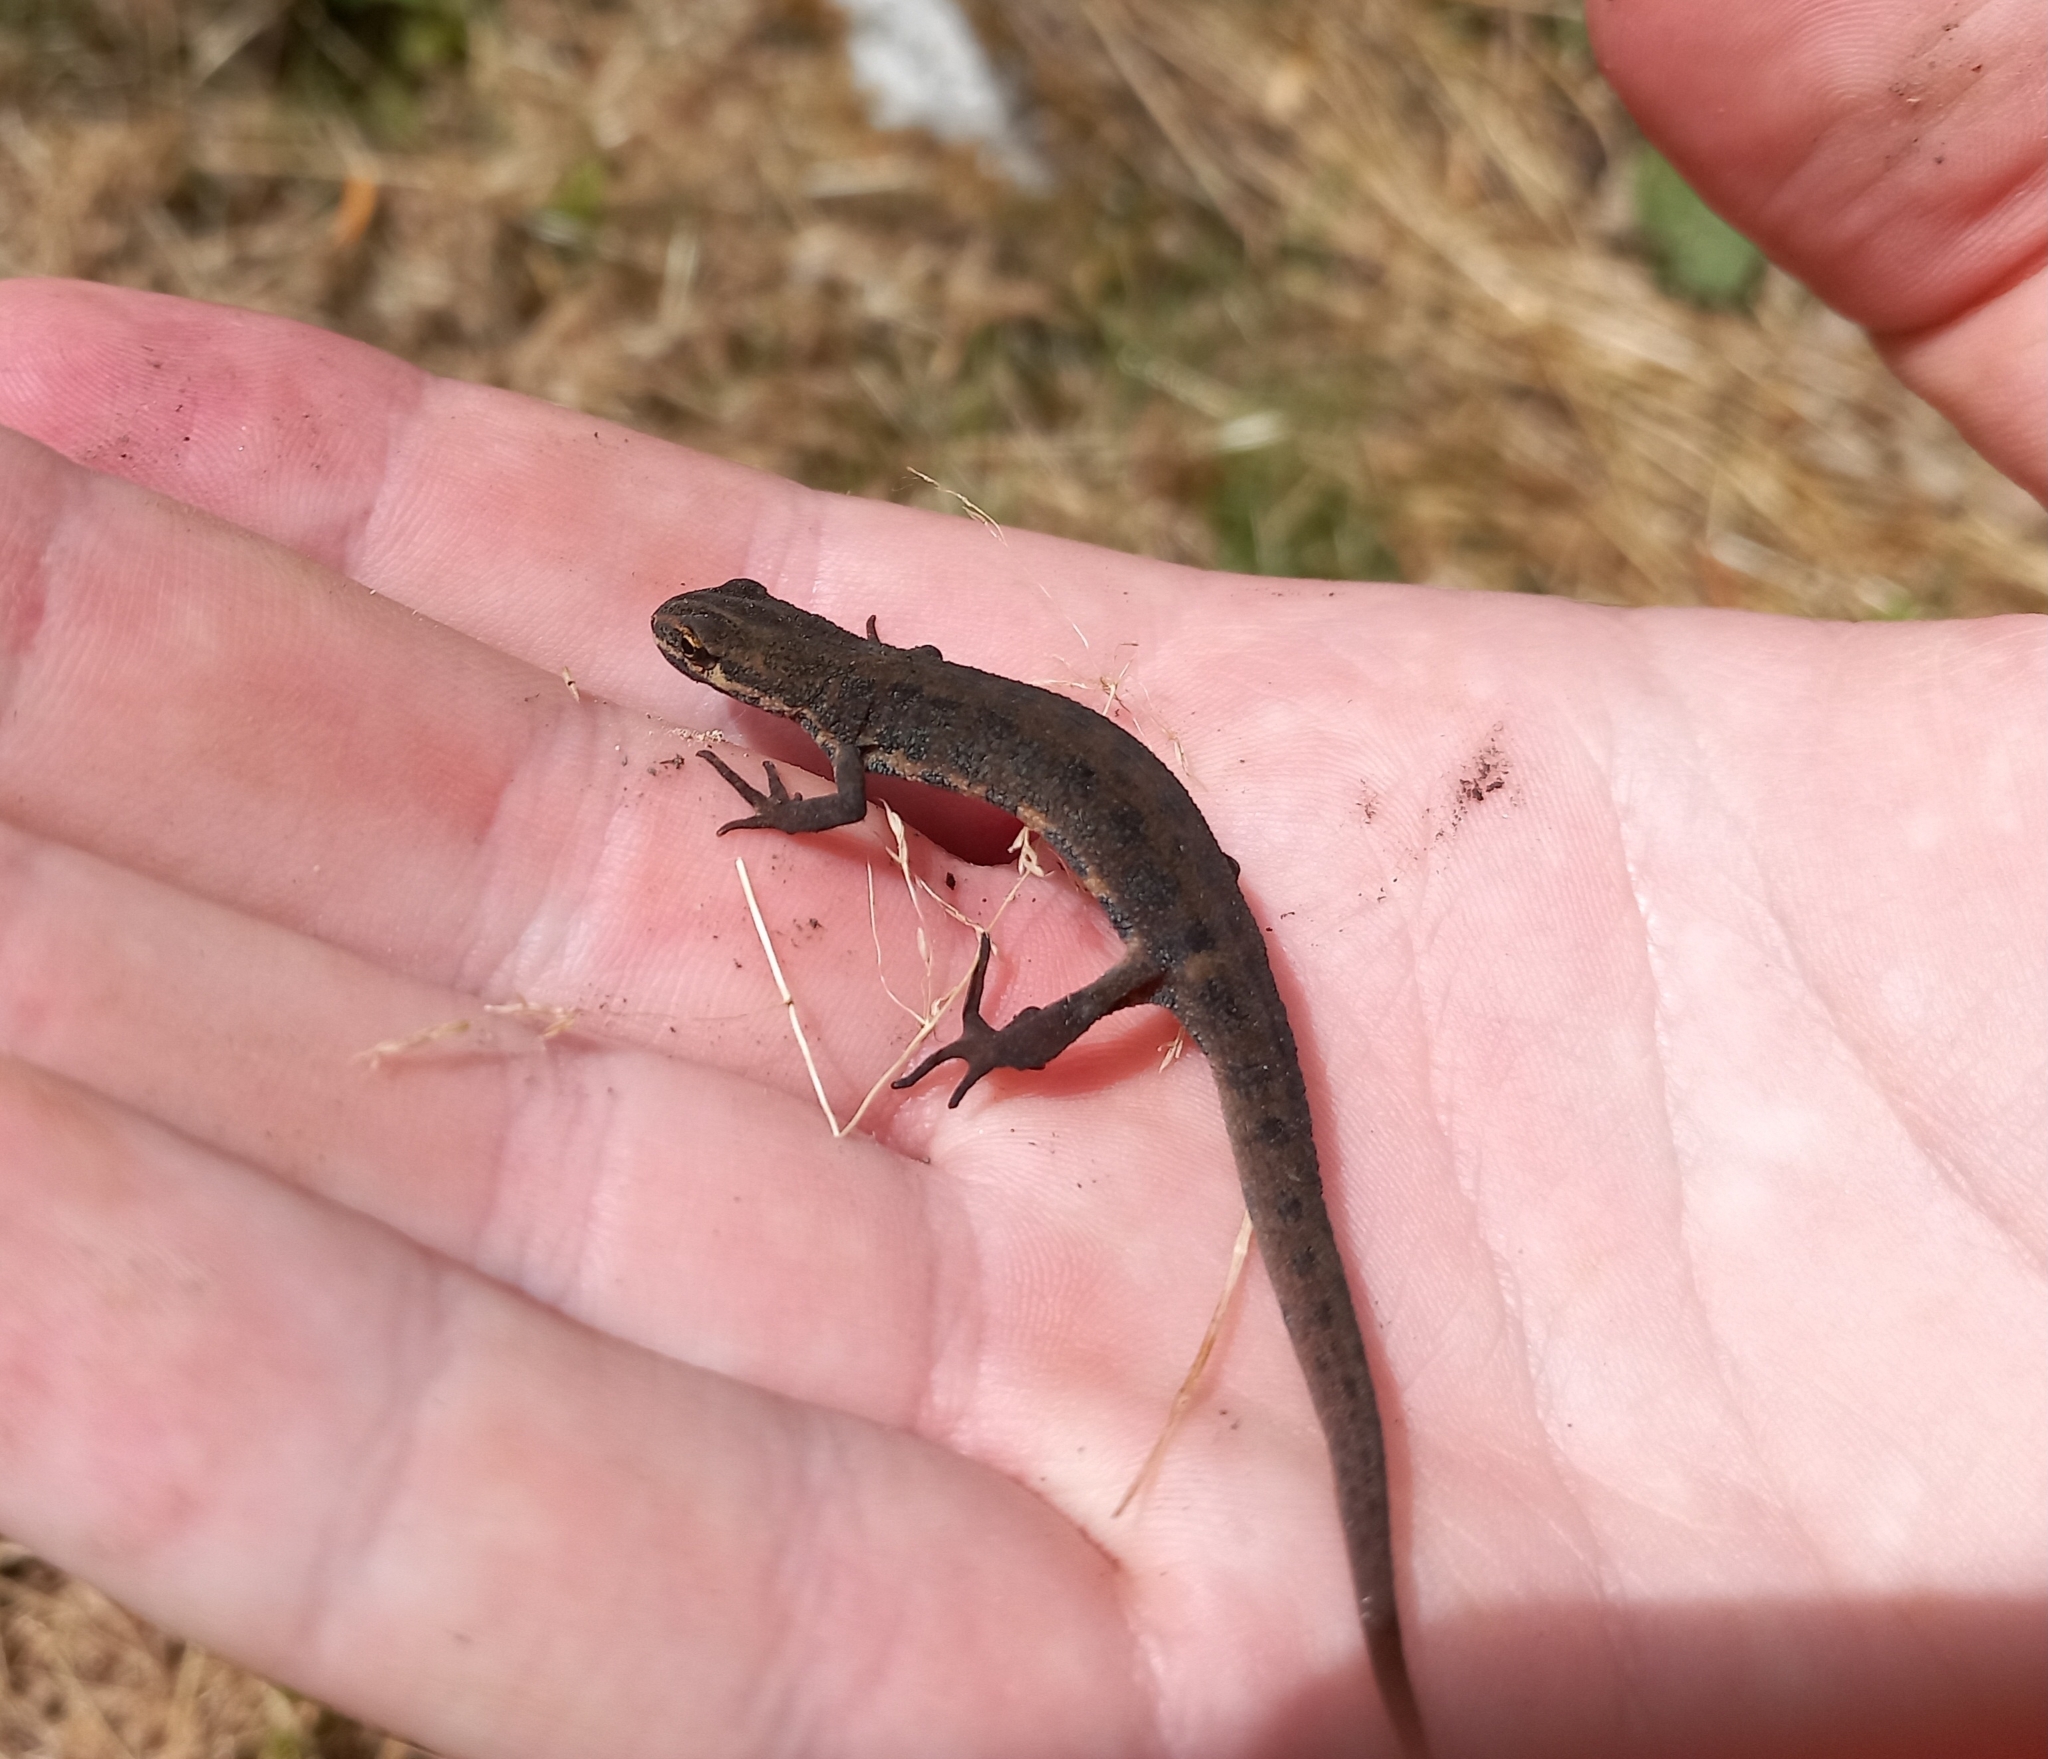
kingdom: Animalia
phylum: Chordata
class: Amphibia
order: Caudata
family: Salamandridae
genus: Lissotriton
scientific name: Lissotriton vulgaris
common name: Smooth newt
